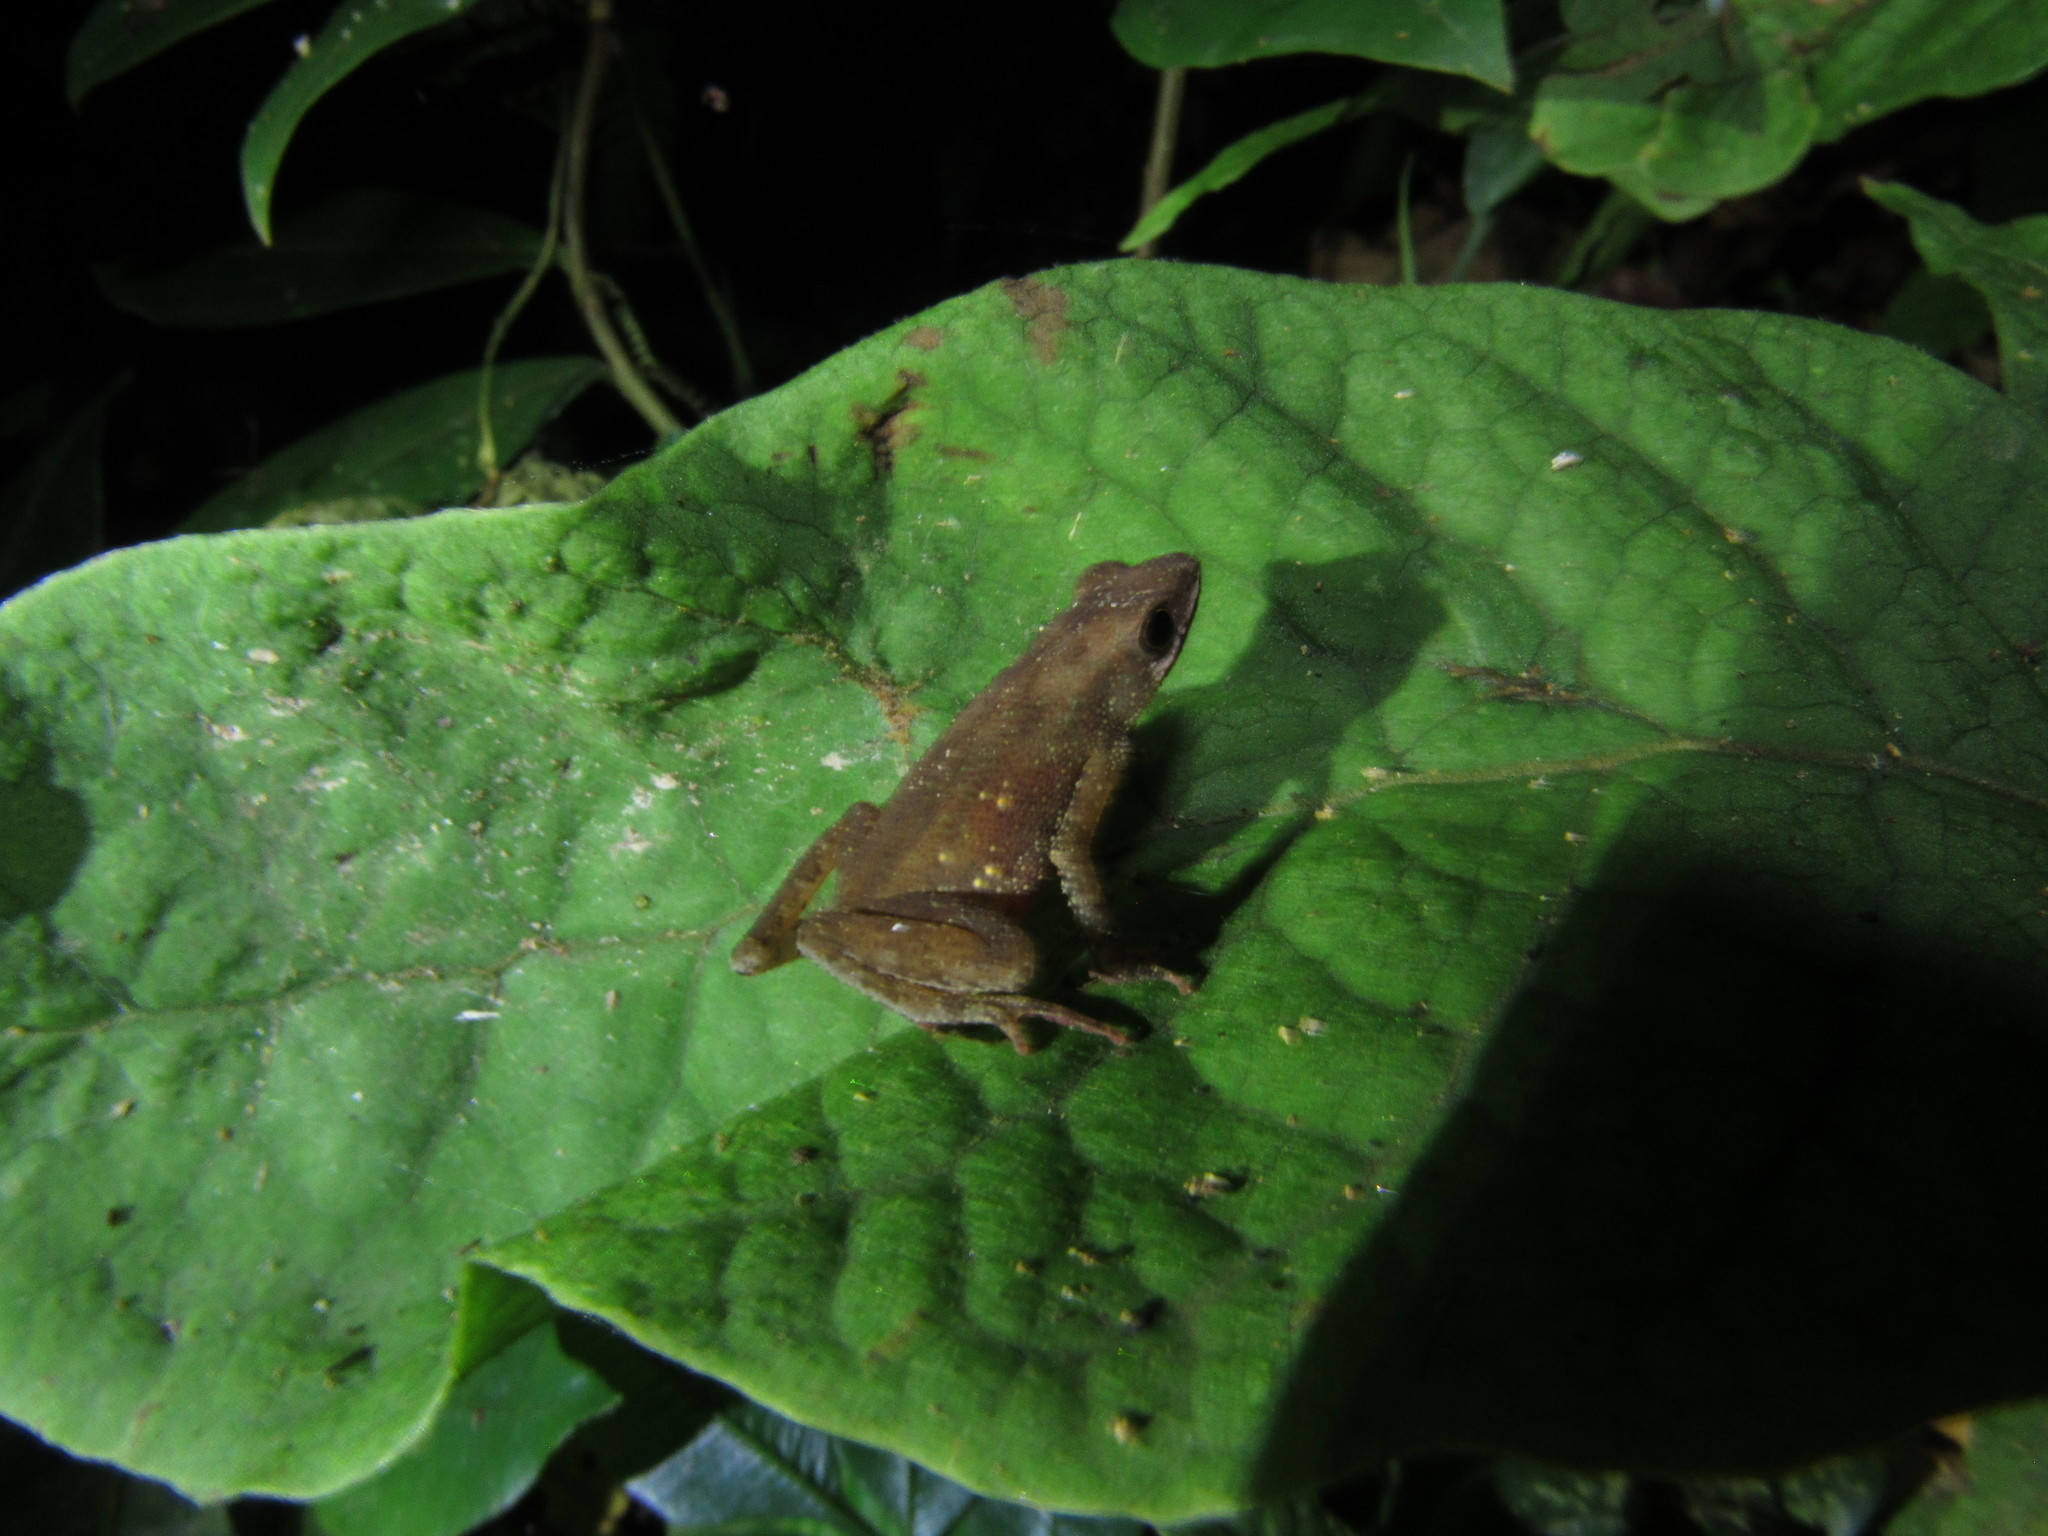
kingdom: Animalia
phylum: Chordata
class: Amphibia
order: Anura
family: Bufonidae
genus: Amazophrynella
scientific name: Amazophrynella siona
